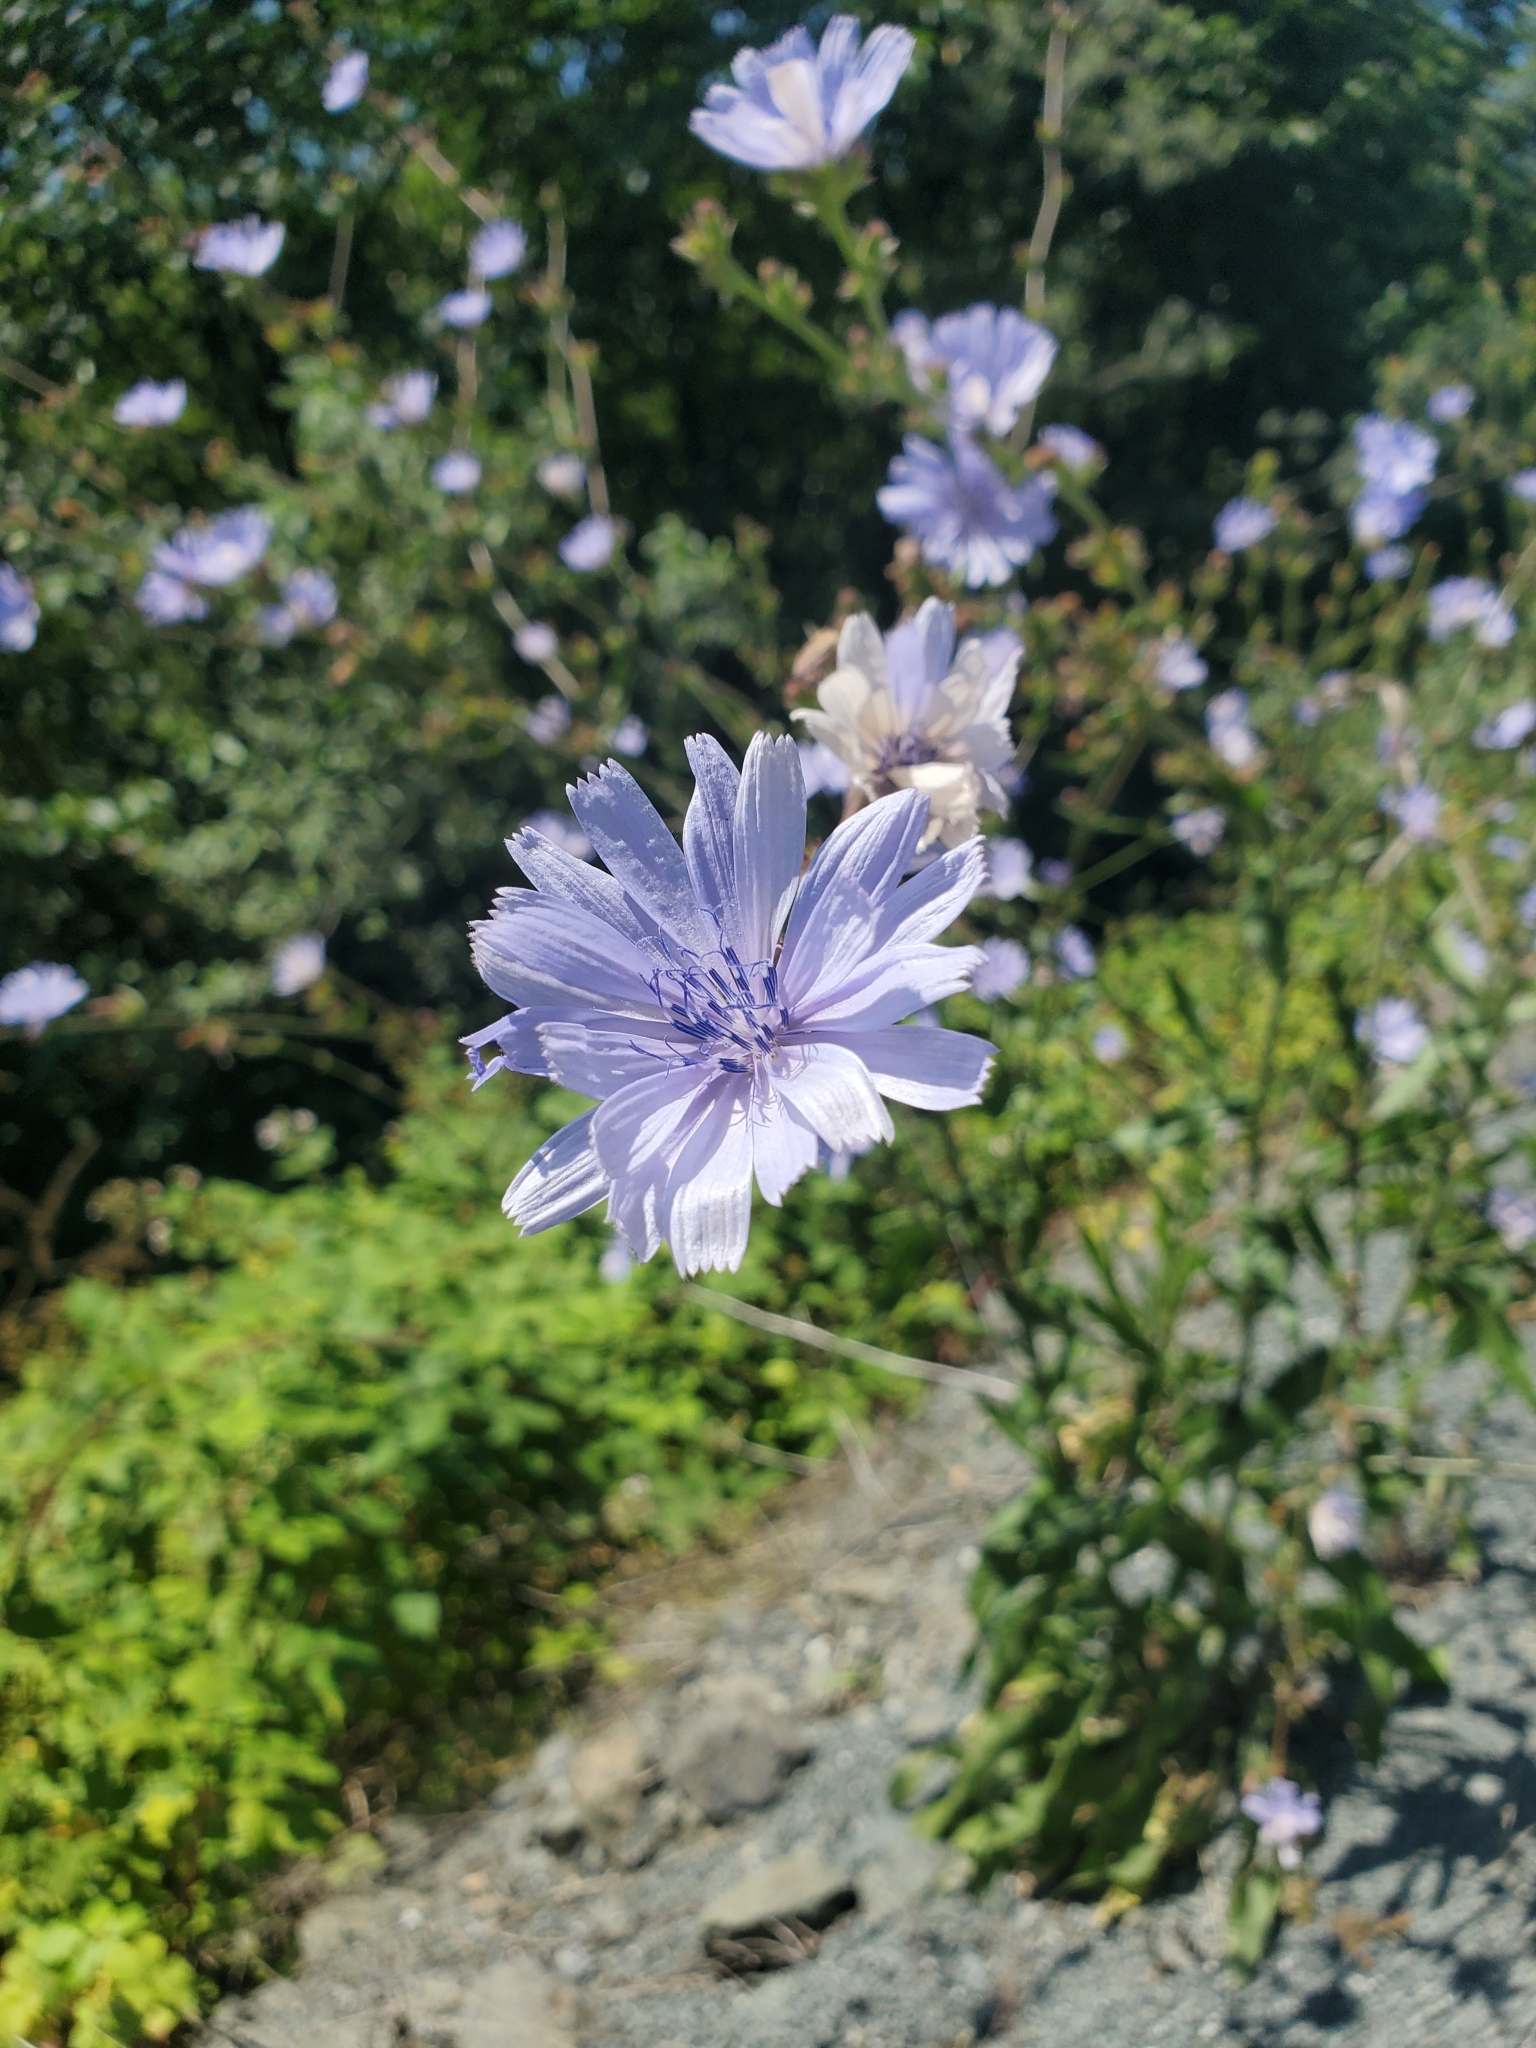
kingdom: Plantae
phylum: Tracheophyta
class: Magnoliopsida
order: Asterales
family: Asteraceae
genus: Cichorium
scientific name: Cichorium intybus
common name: Chicory
